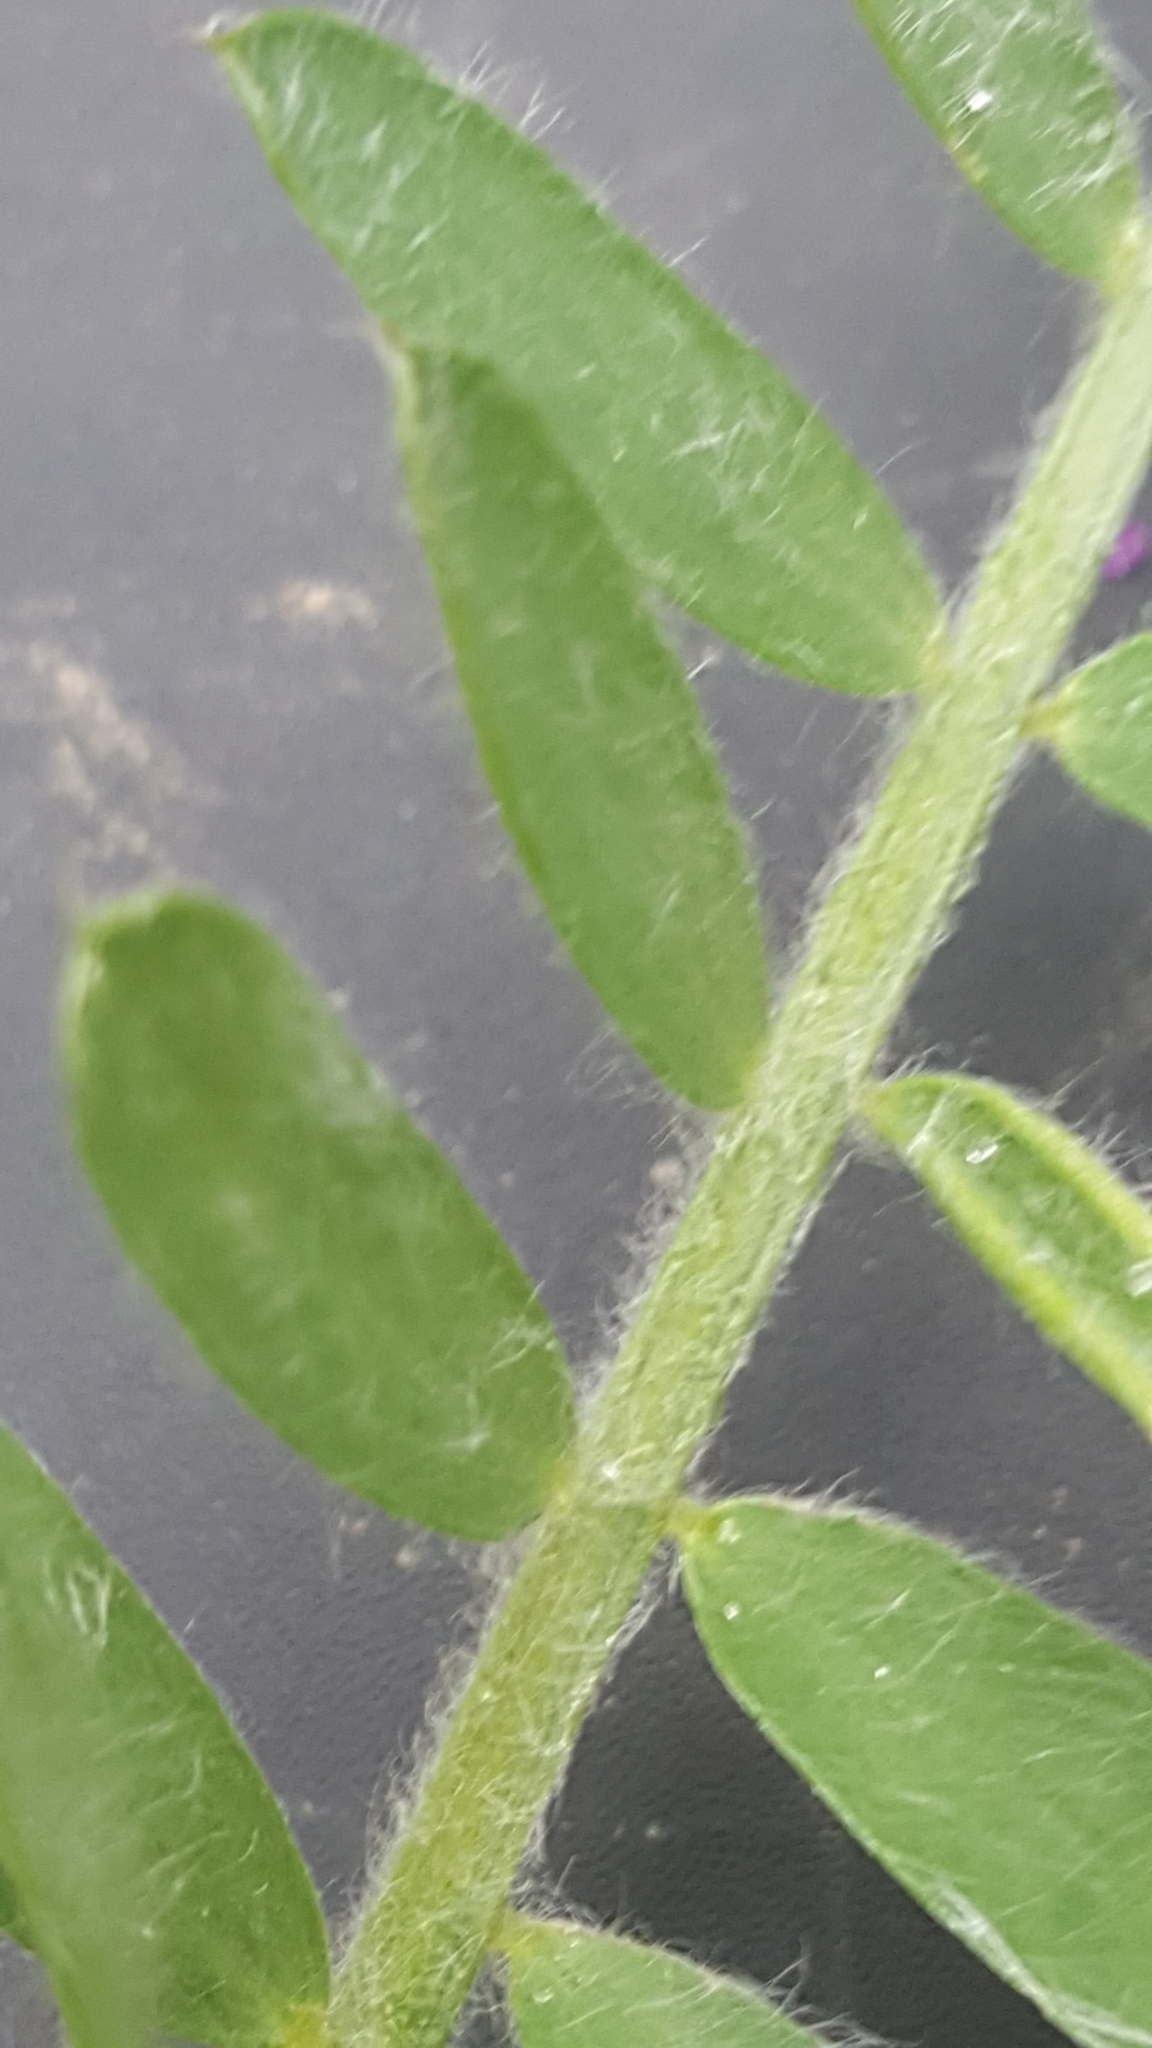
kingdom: Plantae
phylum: Tracheophyta
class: Magnoliopsida
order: Fabales
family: Fabaceae
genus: Vicia
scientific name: Vicia villosa
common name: Fodder vetch
